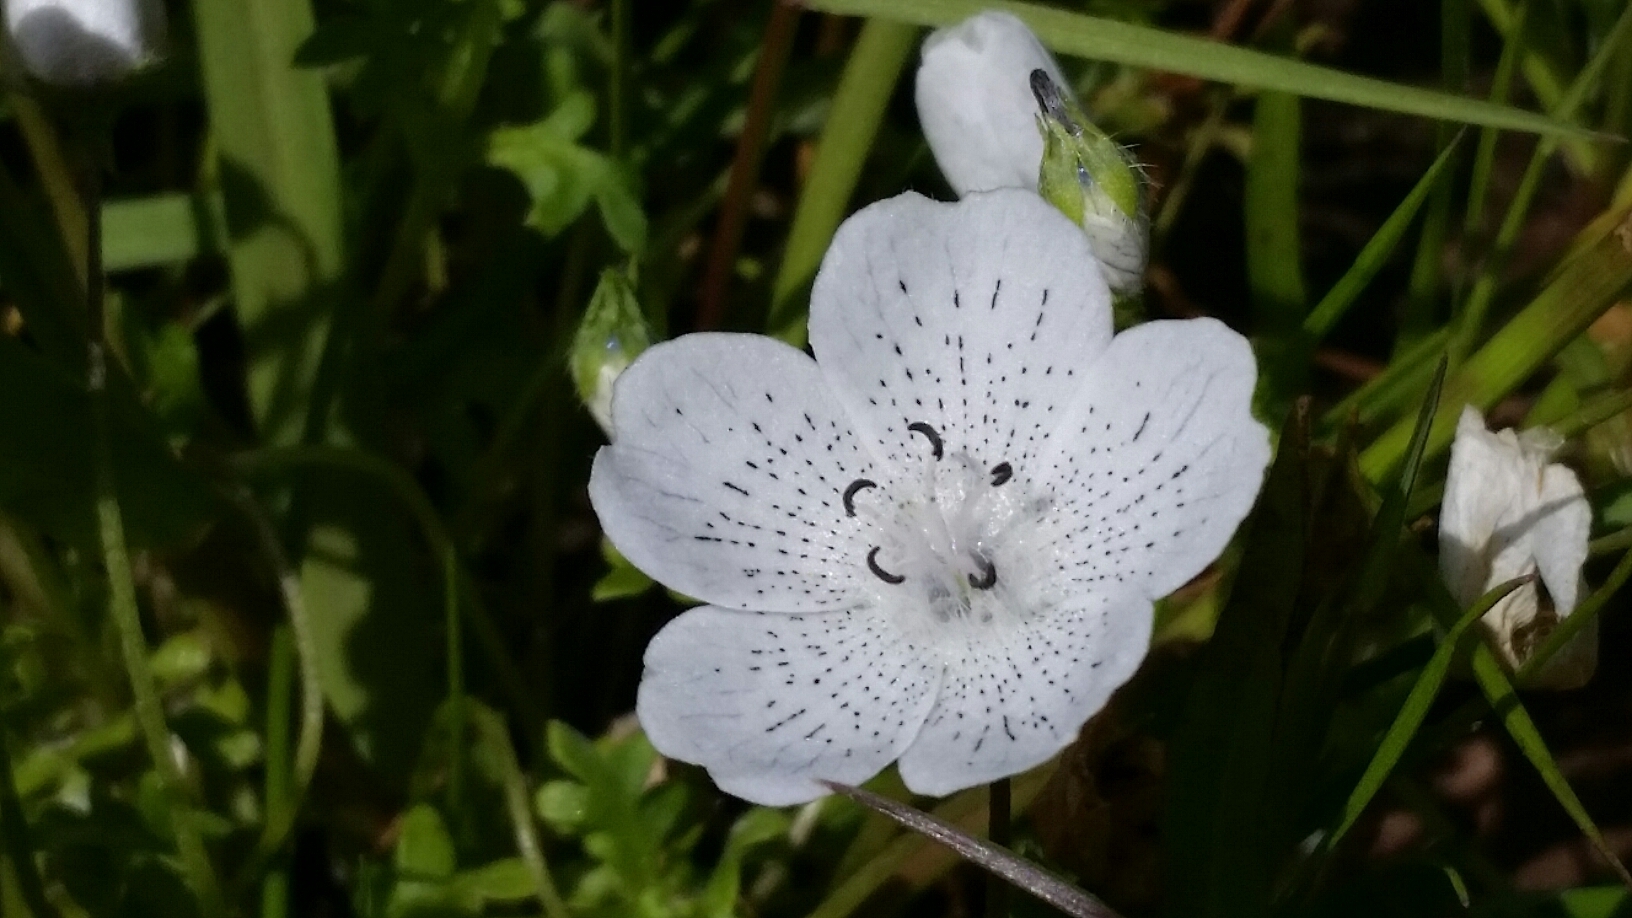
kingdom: Plantae
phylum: Tracheophyta
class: Magnoliopsida
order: Boraginales
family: Hydrophyllaceae
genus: Nemophila
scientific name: Nemophila menziesii
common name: Baby's-blue-eyes
